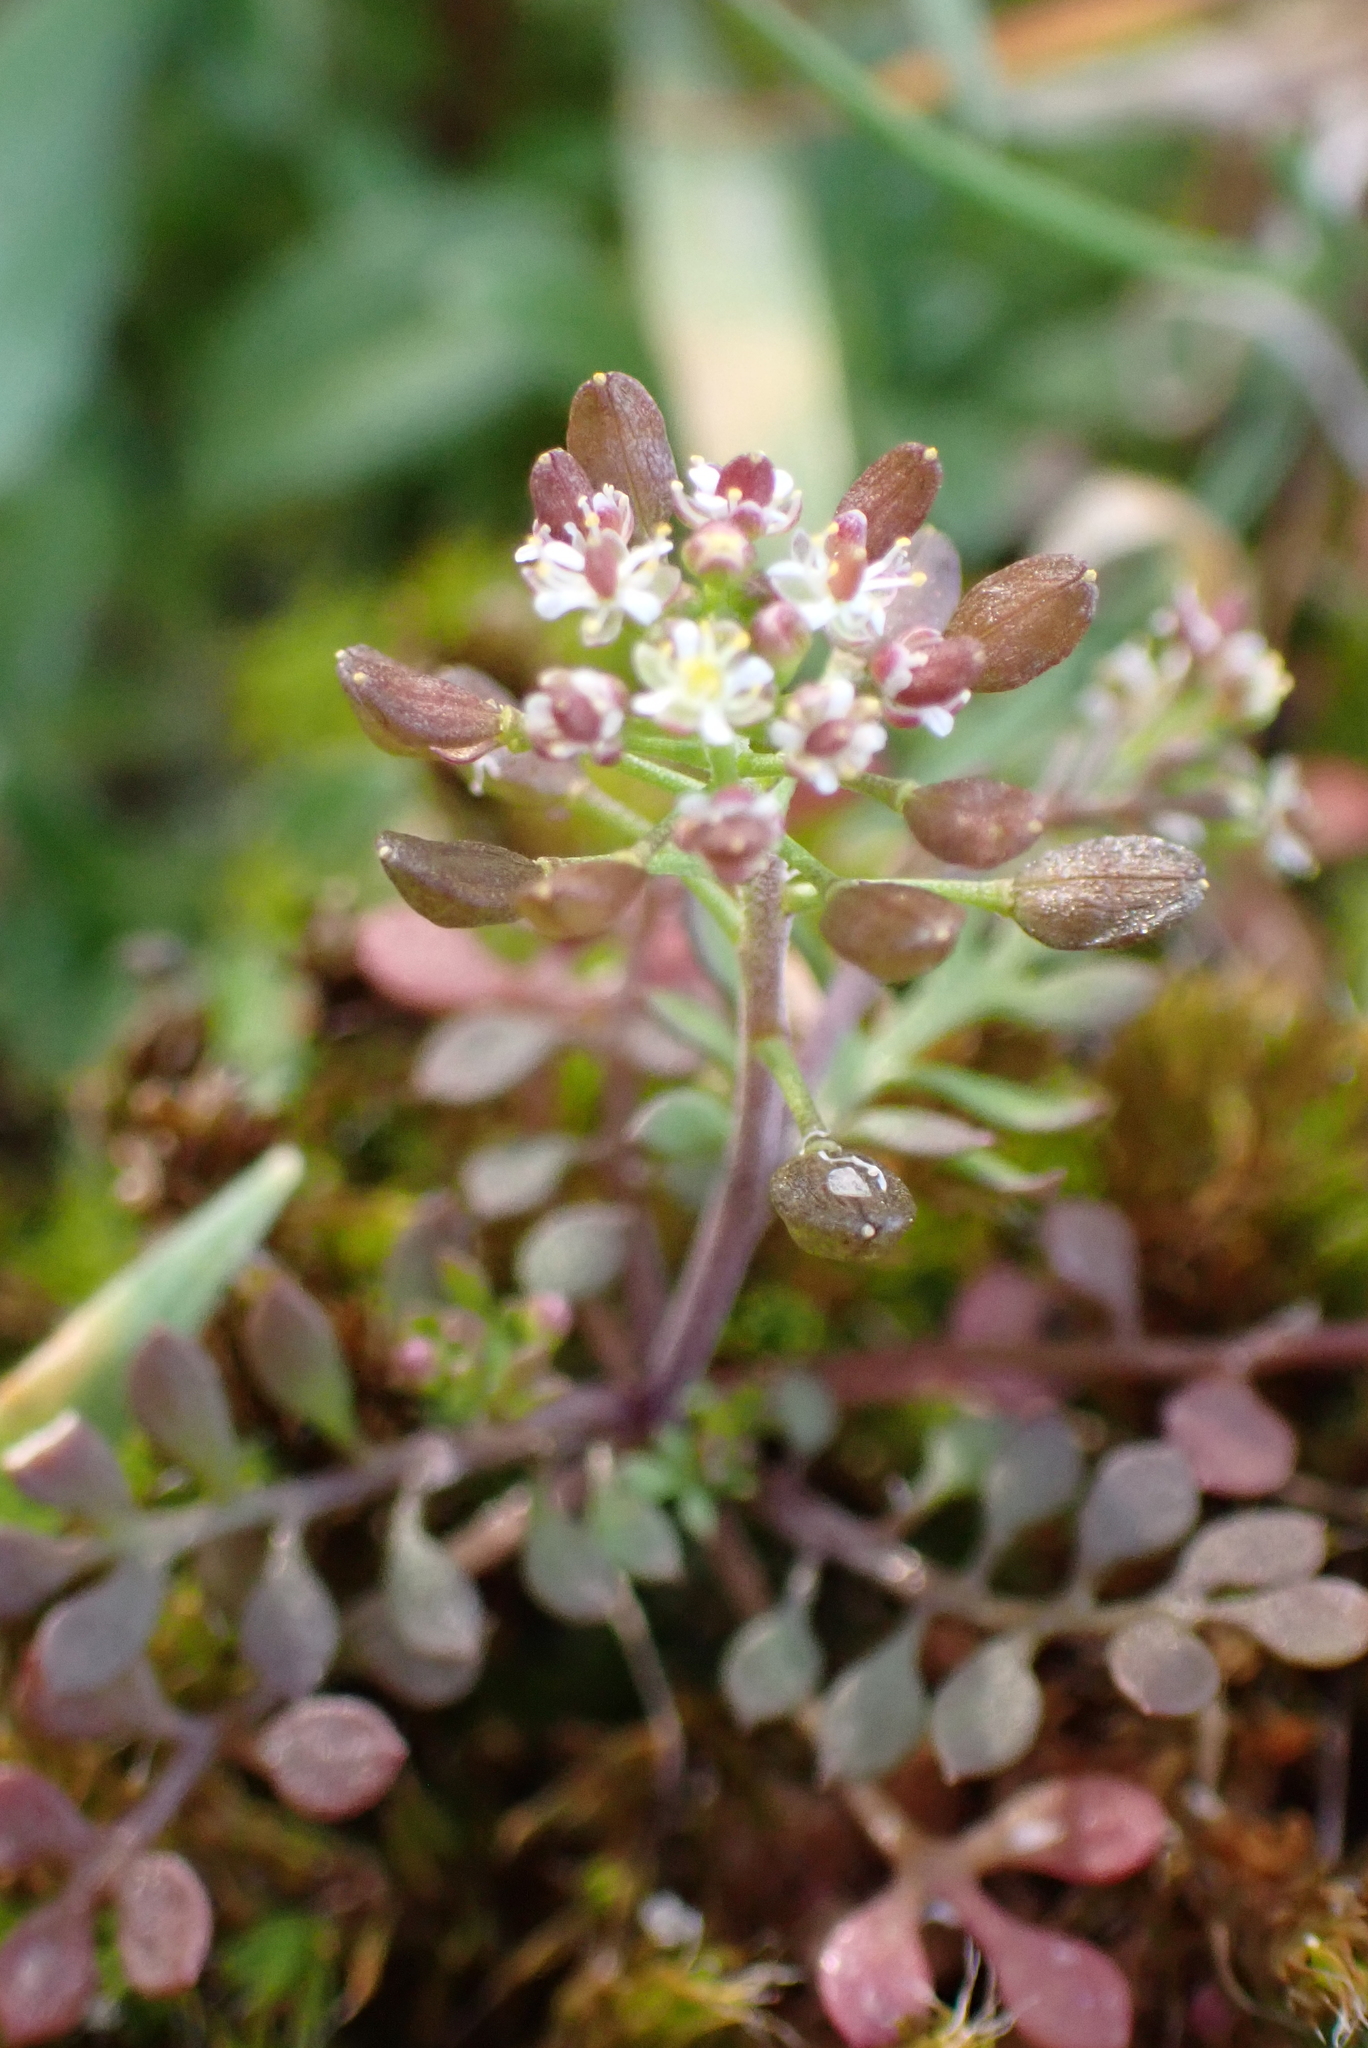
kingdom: Plantae
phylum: Tracheophyta
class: Magnoliopsida
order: Brassicales
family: Brassicaceae
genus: Hornungia
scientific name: Hornungia petraea
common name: Hutchinsia
